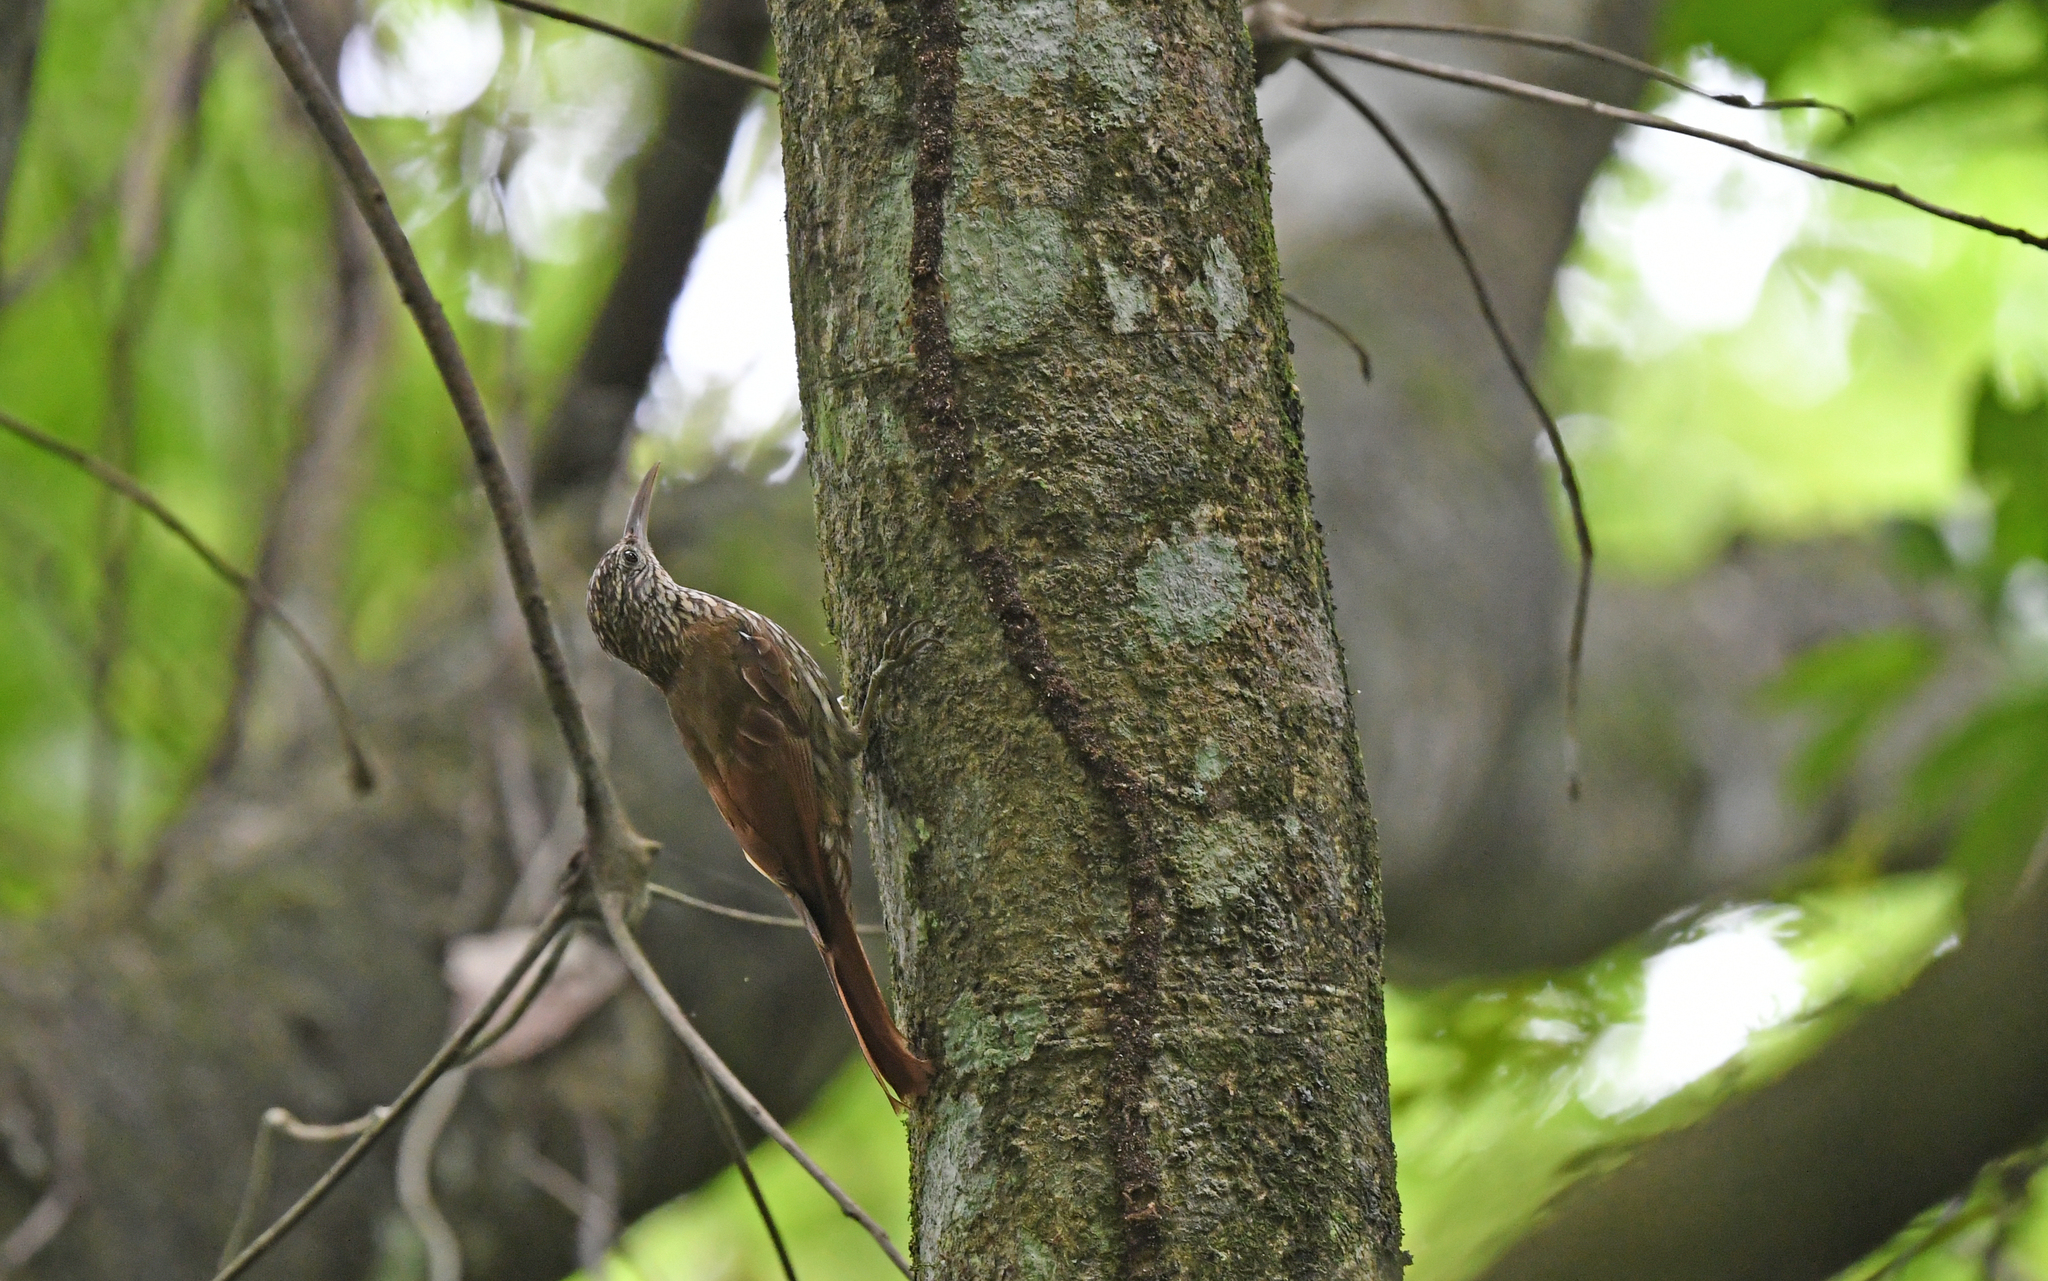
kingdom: Animalia
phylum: Chordata
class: Aves
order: Passeriformes
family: Furnariidae
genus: Lepidocolaptes
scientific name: Lepidocolaptes souleyetii
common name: Streak-headed woodcreeper
